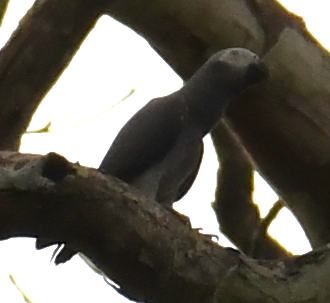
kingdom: Animalia
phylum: Chordata
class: Aves
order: Psittaciformes
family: Psittacidae
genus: Psittacus
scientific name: Psittacus erithacus
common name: Grey parrot
